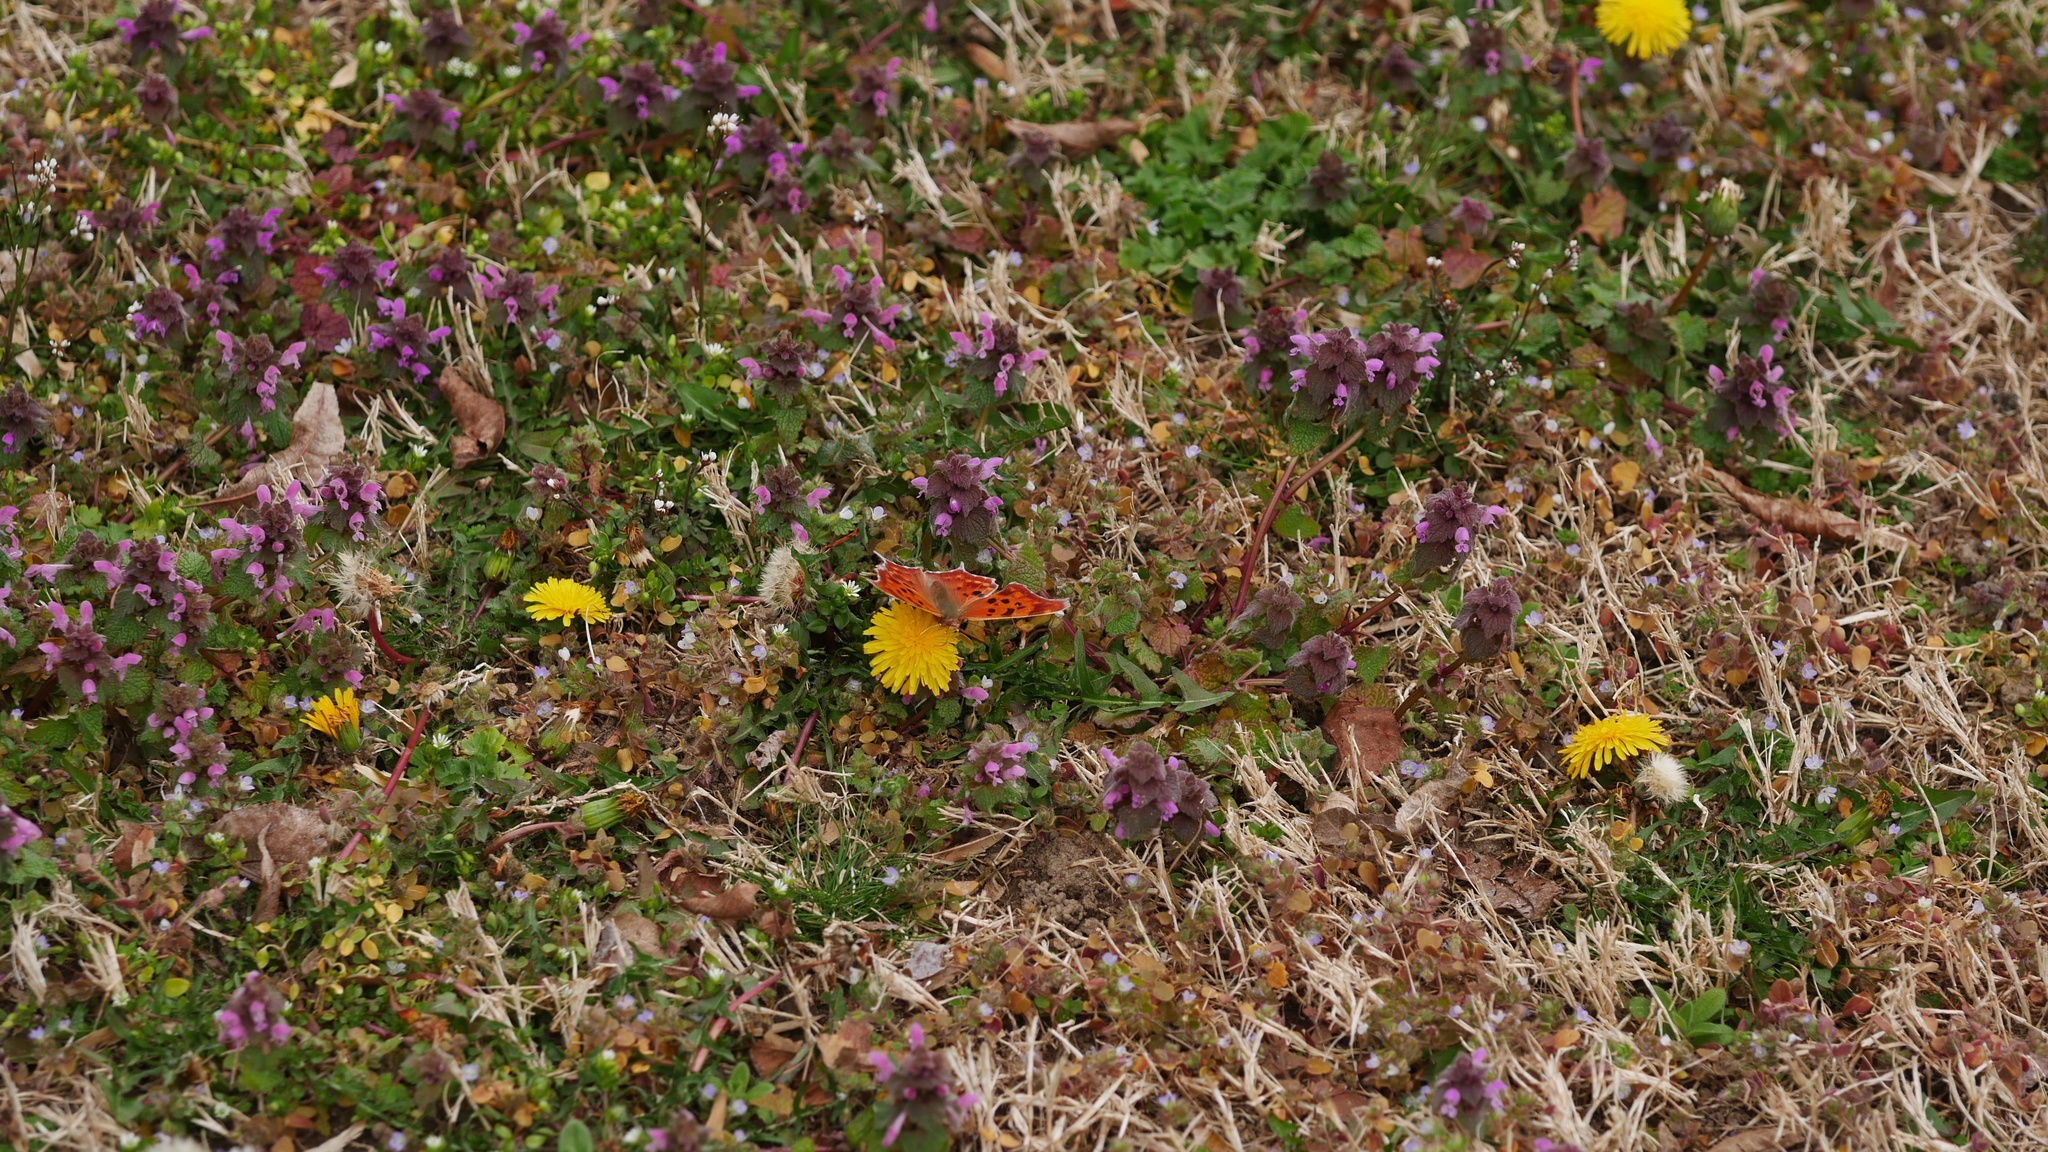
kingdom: Animalia
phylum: Arthropoda
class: Insecta
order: Lepidoptera
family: Nymphalidae
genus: Polygonia
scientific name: Polygonia interrogationis
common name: Question mark
